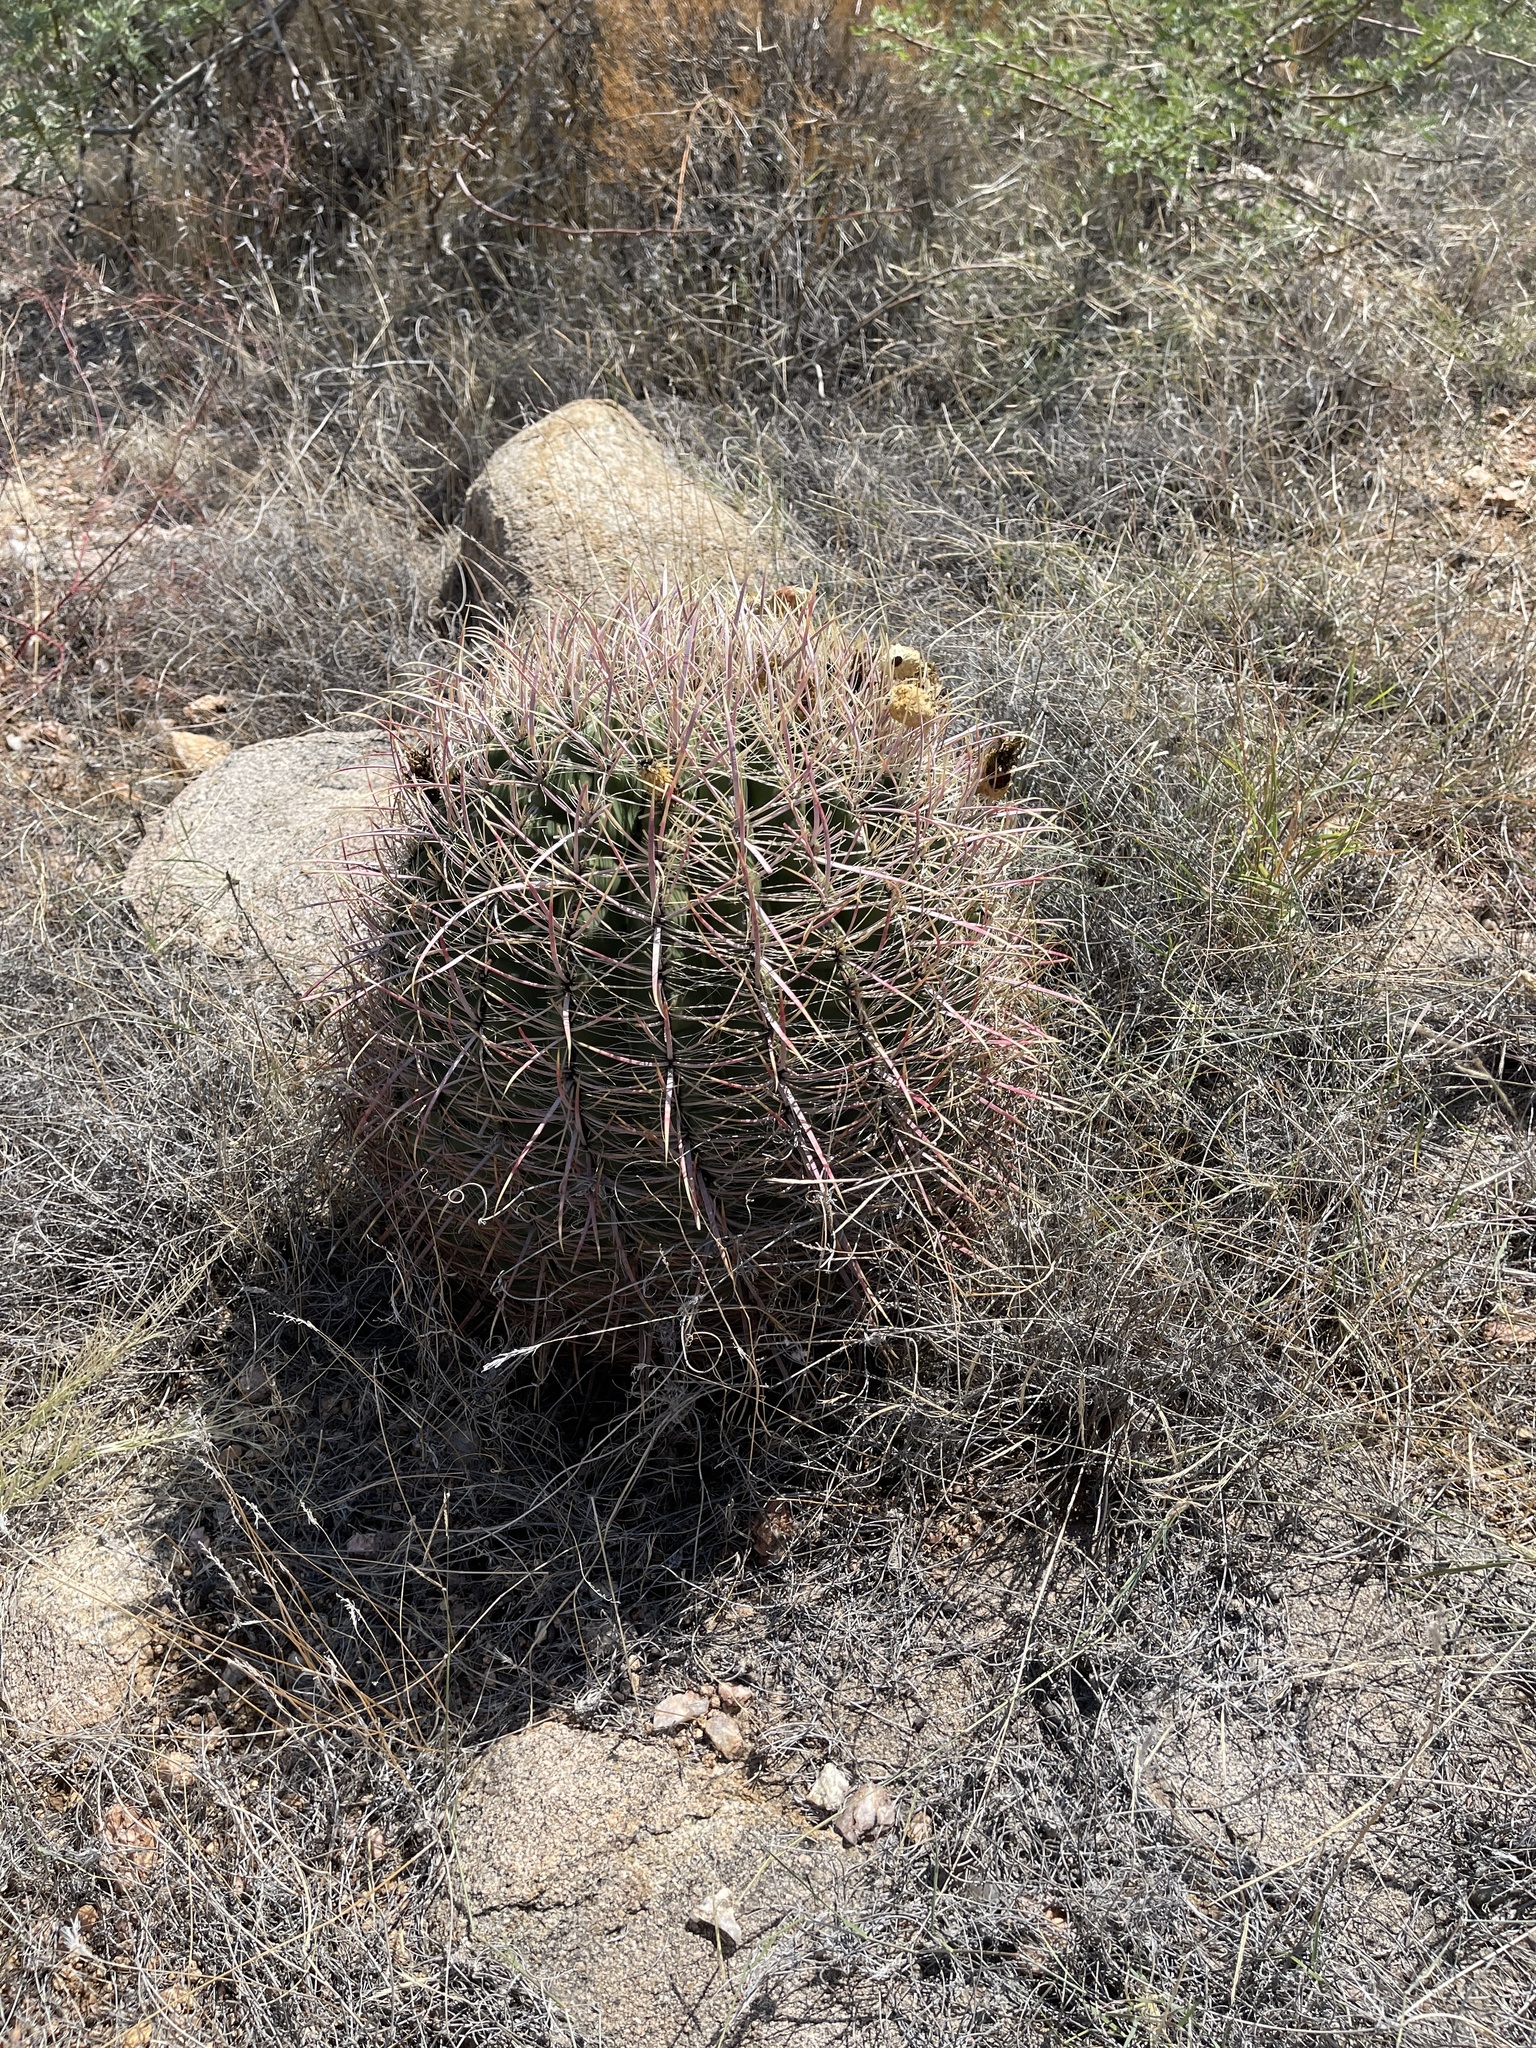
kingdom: Plantae
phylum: Tracheophyta
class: Magnoliopsida
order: Caryophyllales
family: Cactaceae
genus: Ferocactus
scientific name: Ferocactus cylindraceus
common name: California barrel cactus
